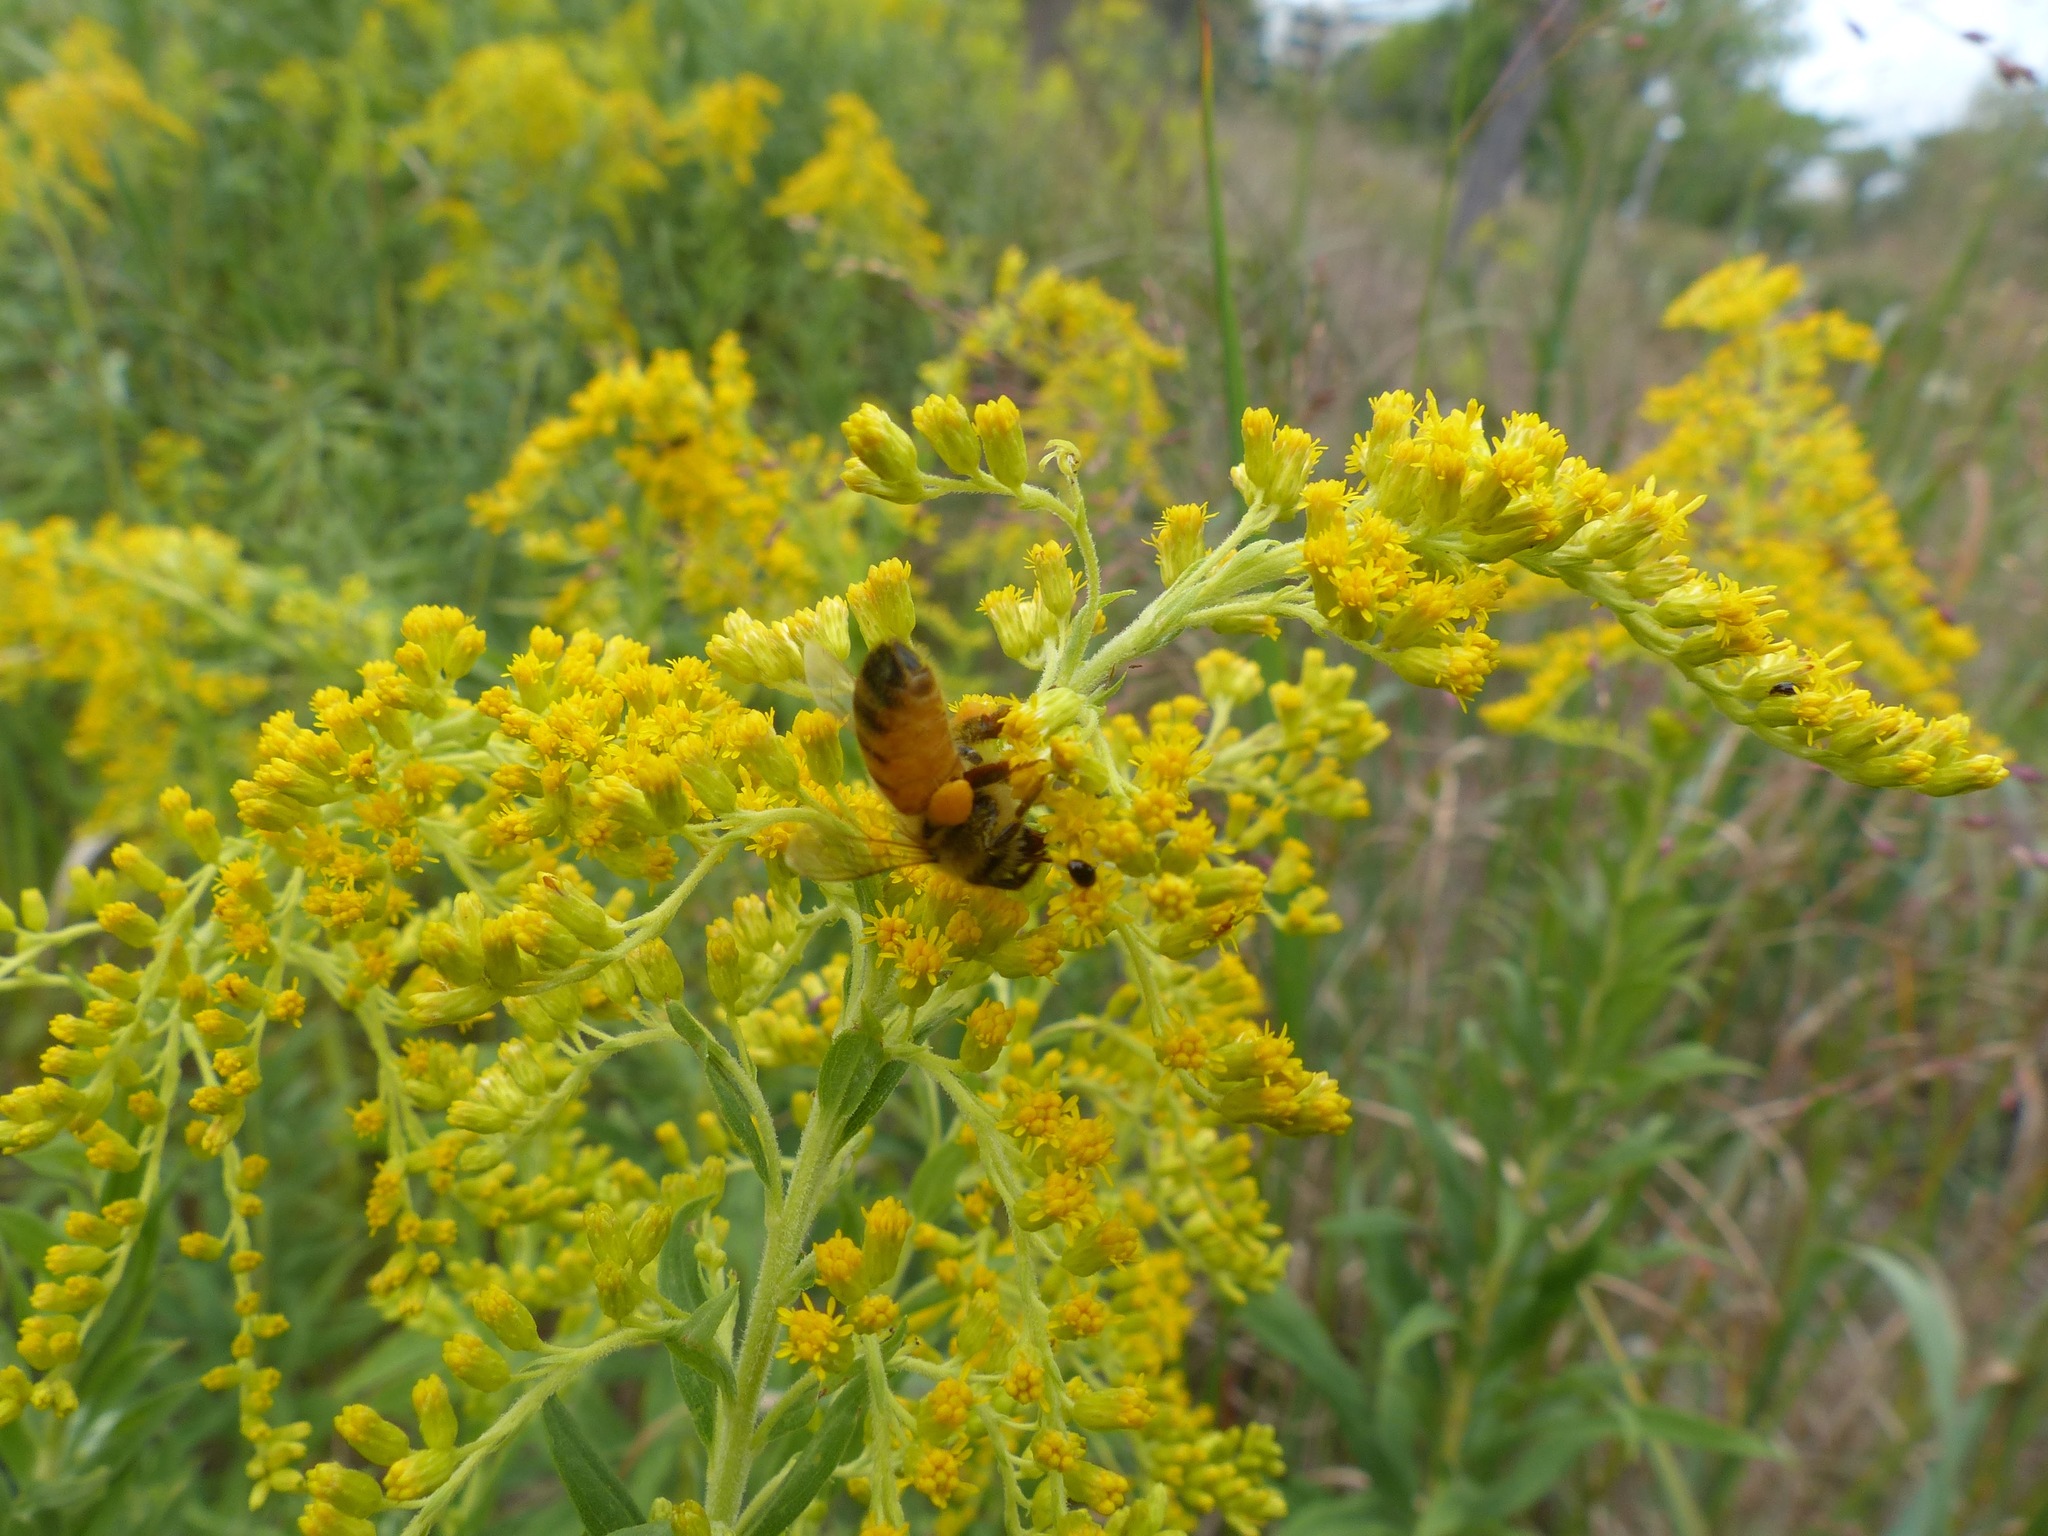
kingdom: Animalia
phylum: Arthropoda
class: Insecta
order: Hymenoptera
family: Apidae
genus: Apis
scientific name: Apis mellifera
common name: Honey bee
